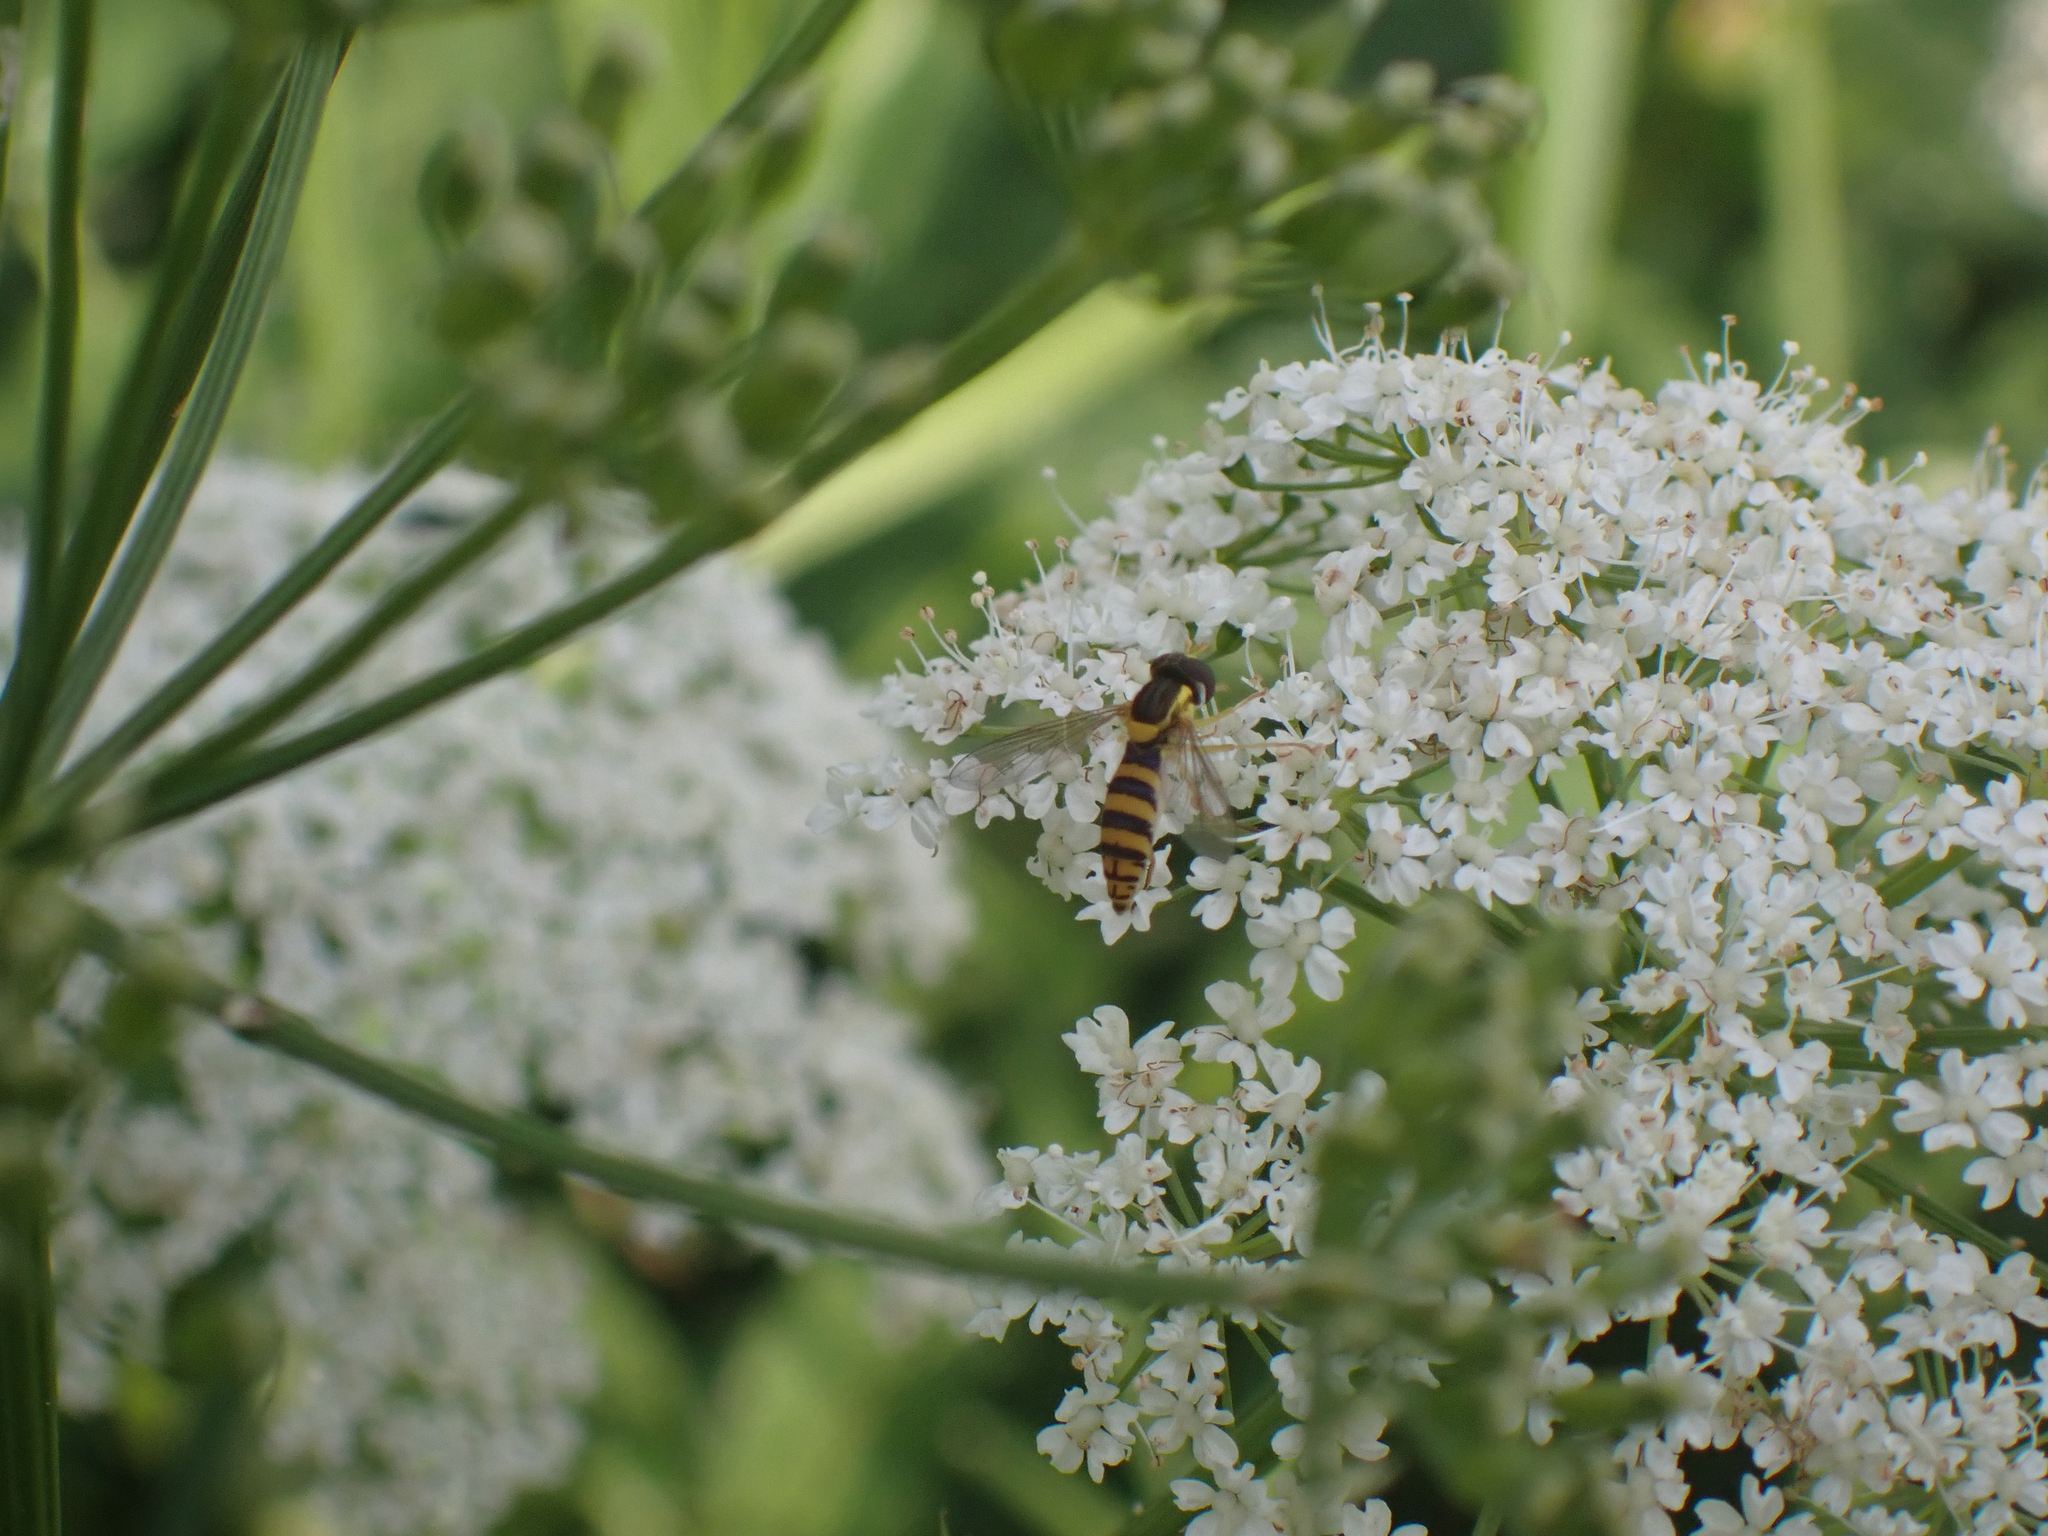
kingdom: Animalia
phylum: Arthropoda
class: Insecta
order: Diptera
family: Syrphidae
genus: Sphaerophoria
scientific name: Sphaerophoria
